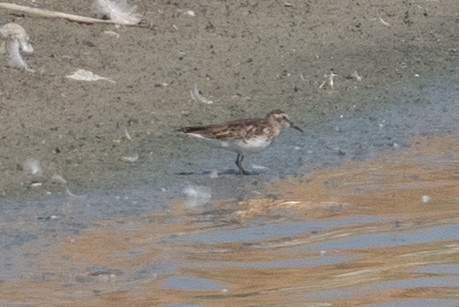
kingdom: Animalia
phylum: Chordata
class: Aves
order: Charadriiformes
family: Scolopacidae
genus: Calidris
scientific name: Calidris minutilla
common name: Least sandpiper
